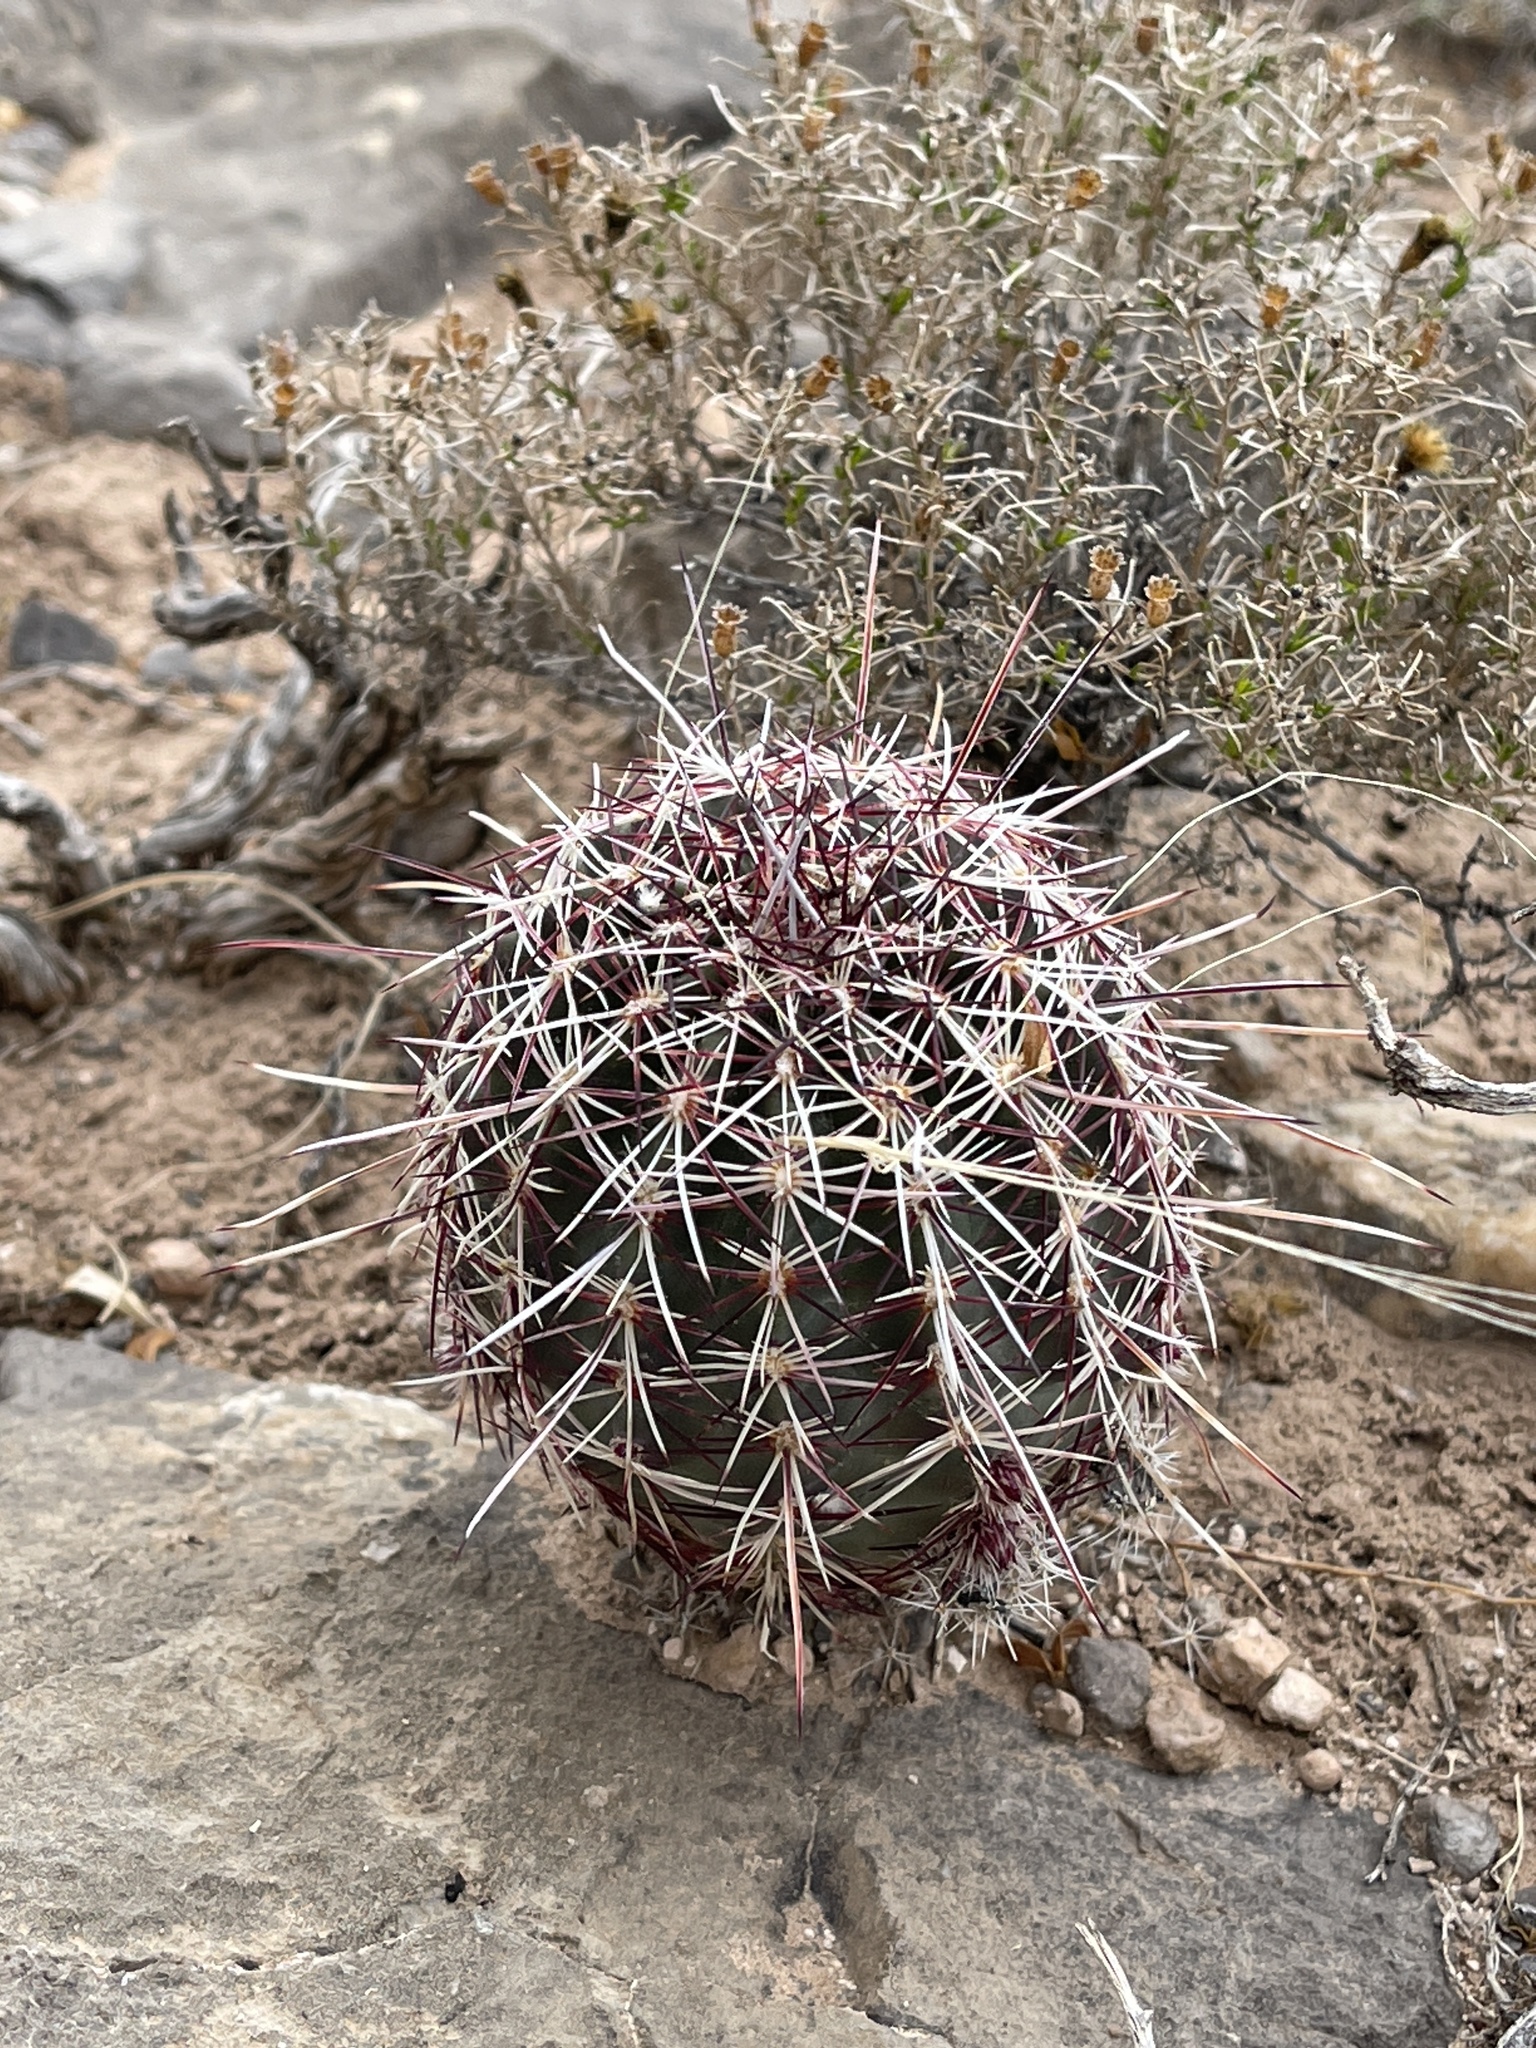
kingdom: Plantae
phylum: Tracheophyta
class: Magnoliopsida
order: Caryophyllales
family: Cactaceae
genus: Echinocereus
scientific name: Echinocereus viridiflorus
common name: Nylon hedgehog cactus
